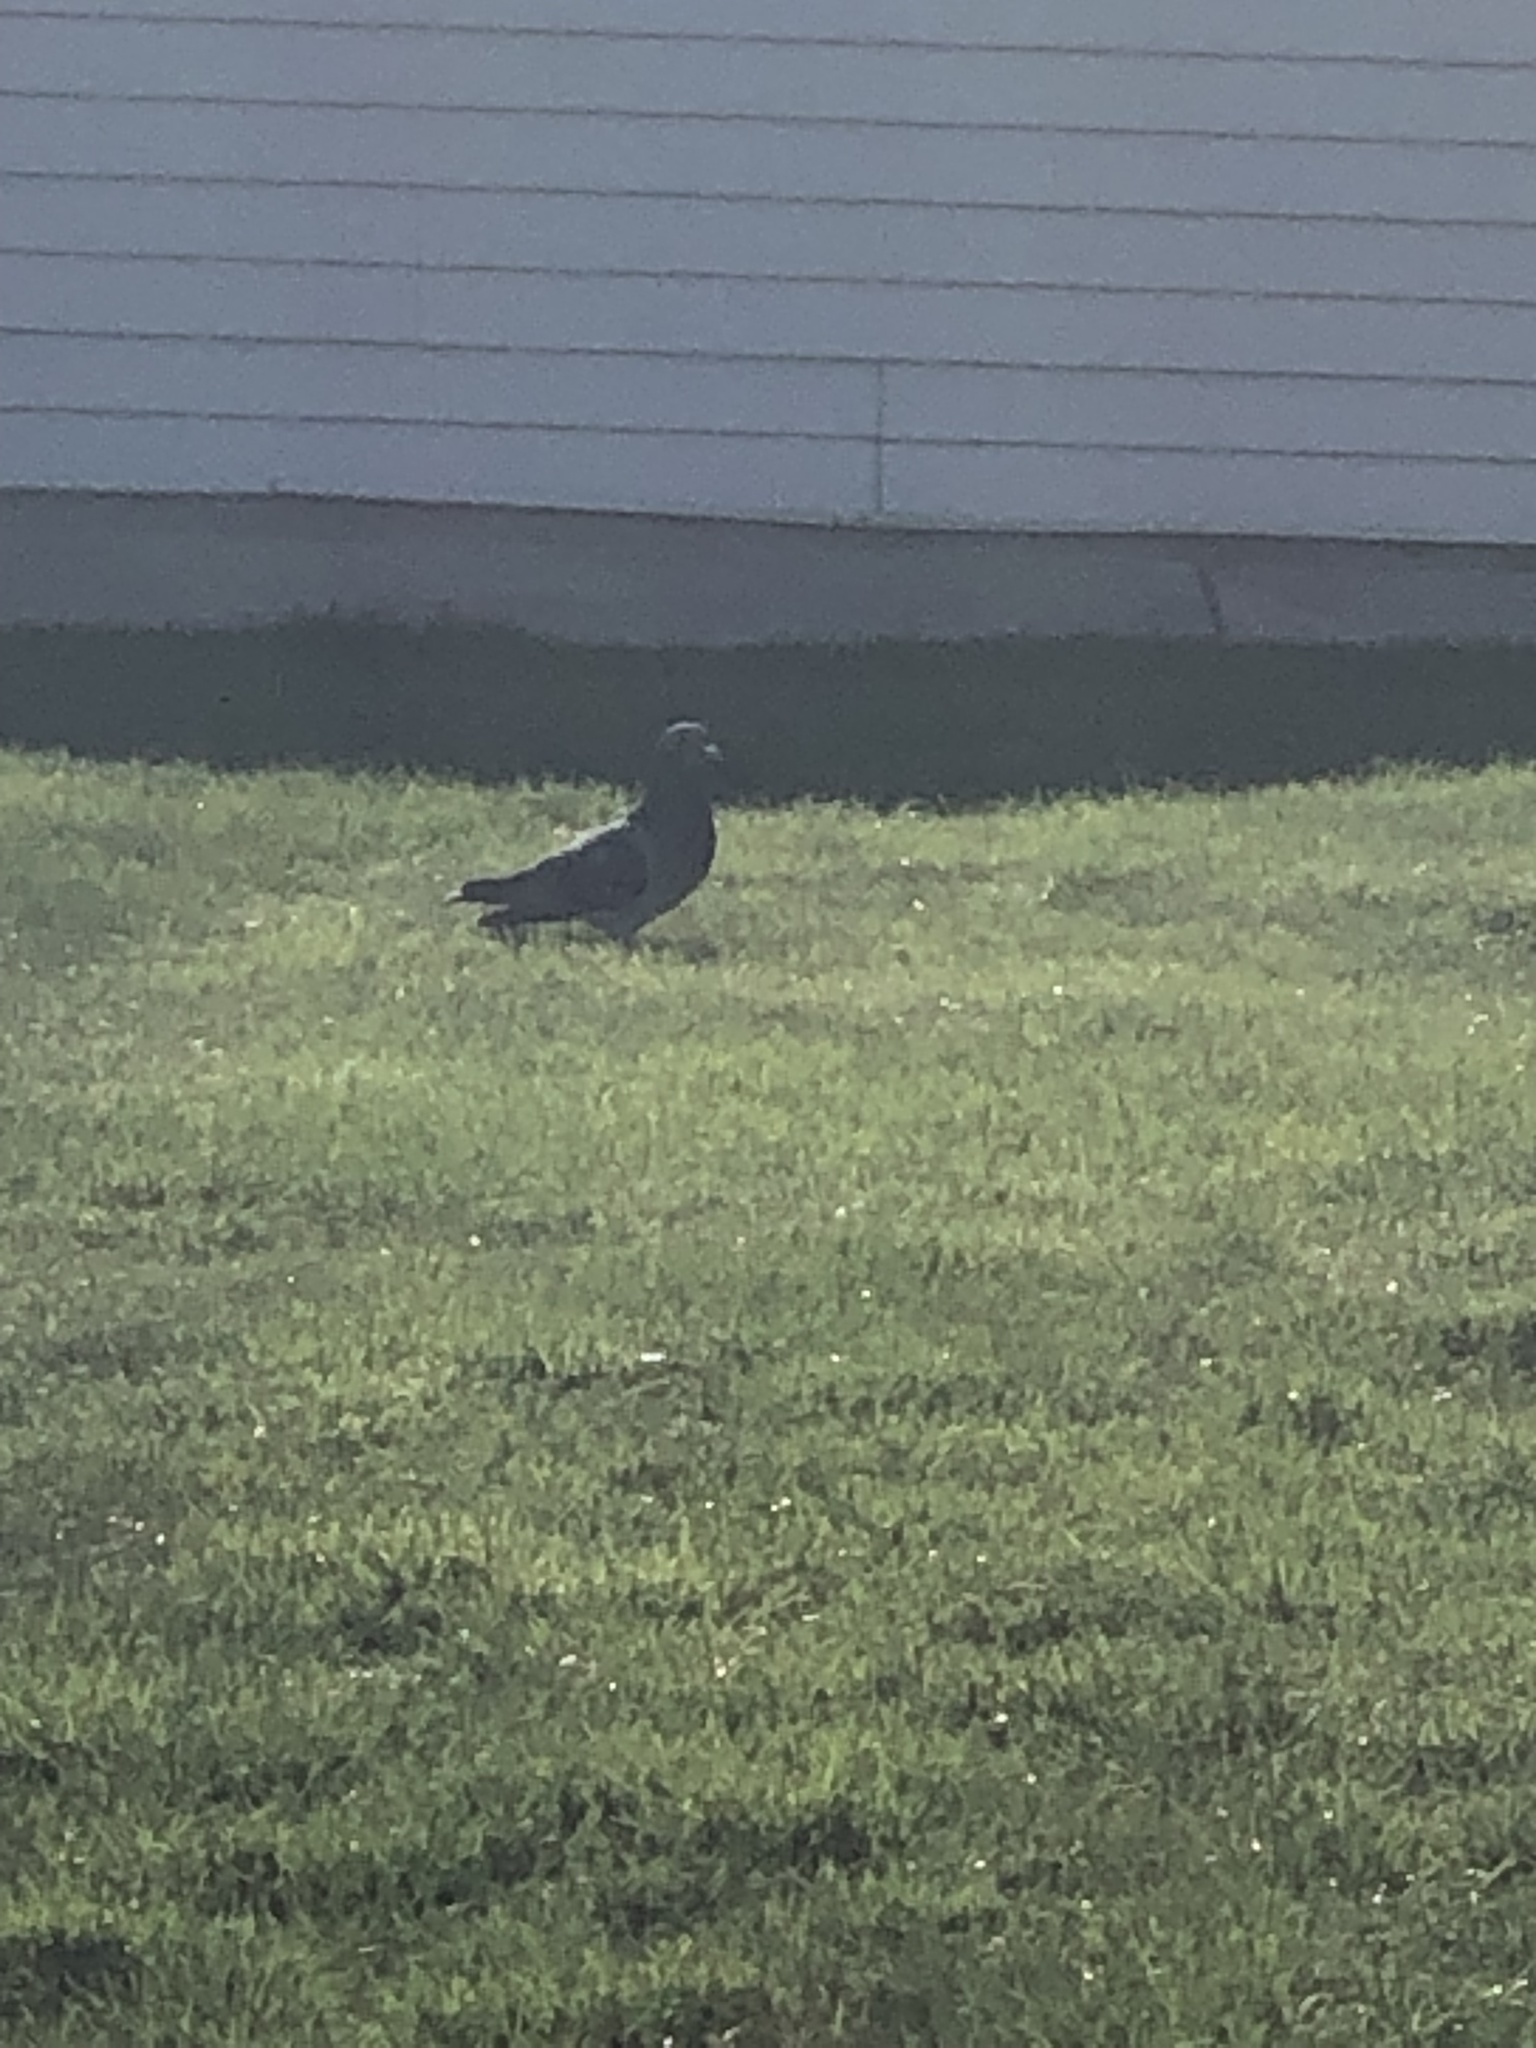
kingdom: Animalia
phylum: Chordata
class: Aves
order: Columbiformes
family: Columbidae
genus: Columba
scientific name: Columba livia
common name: Rock pigeon
